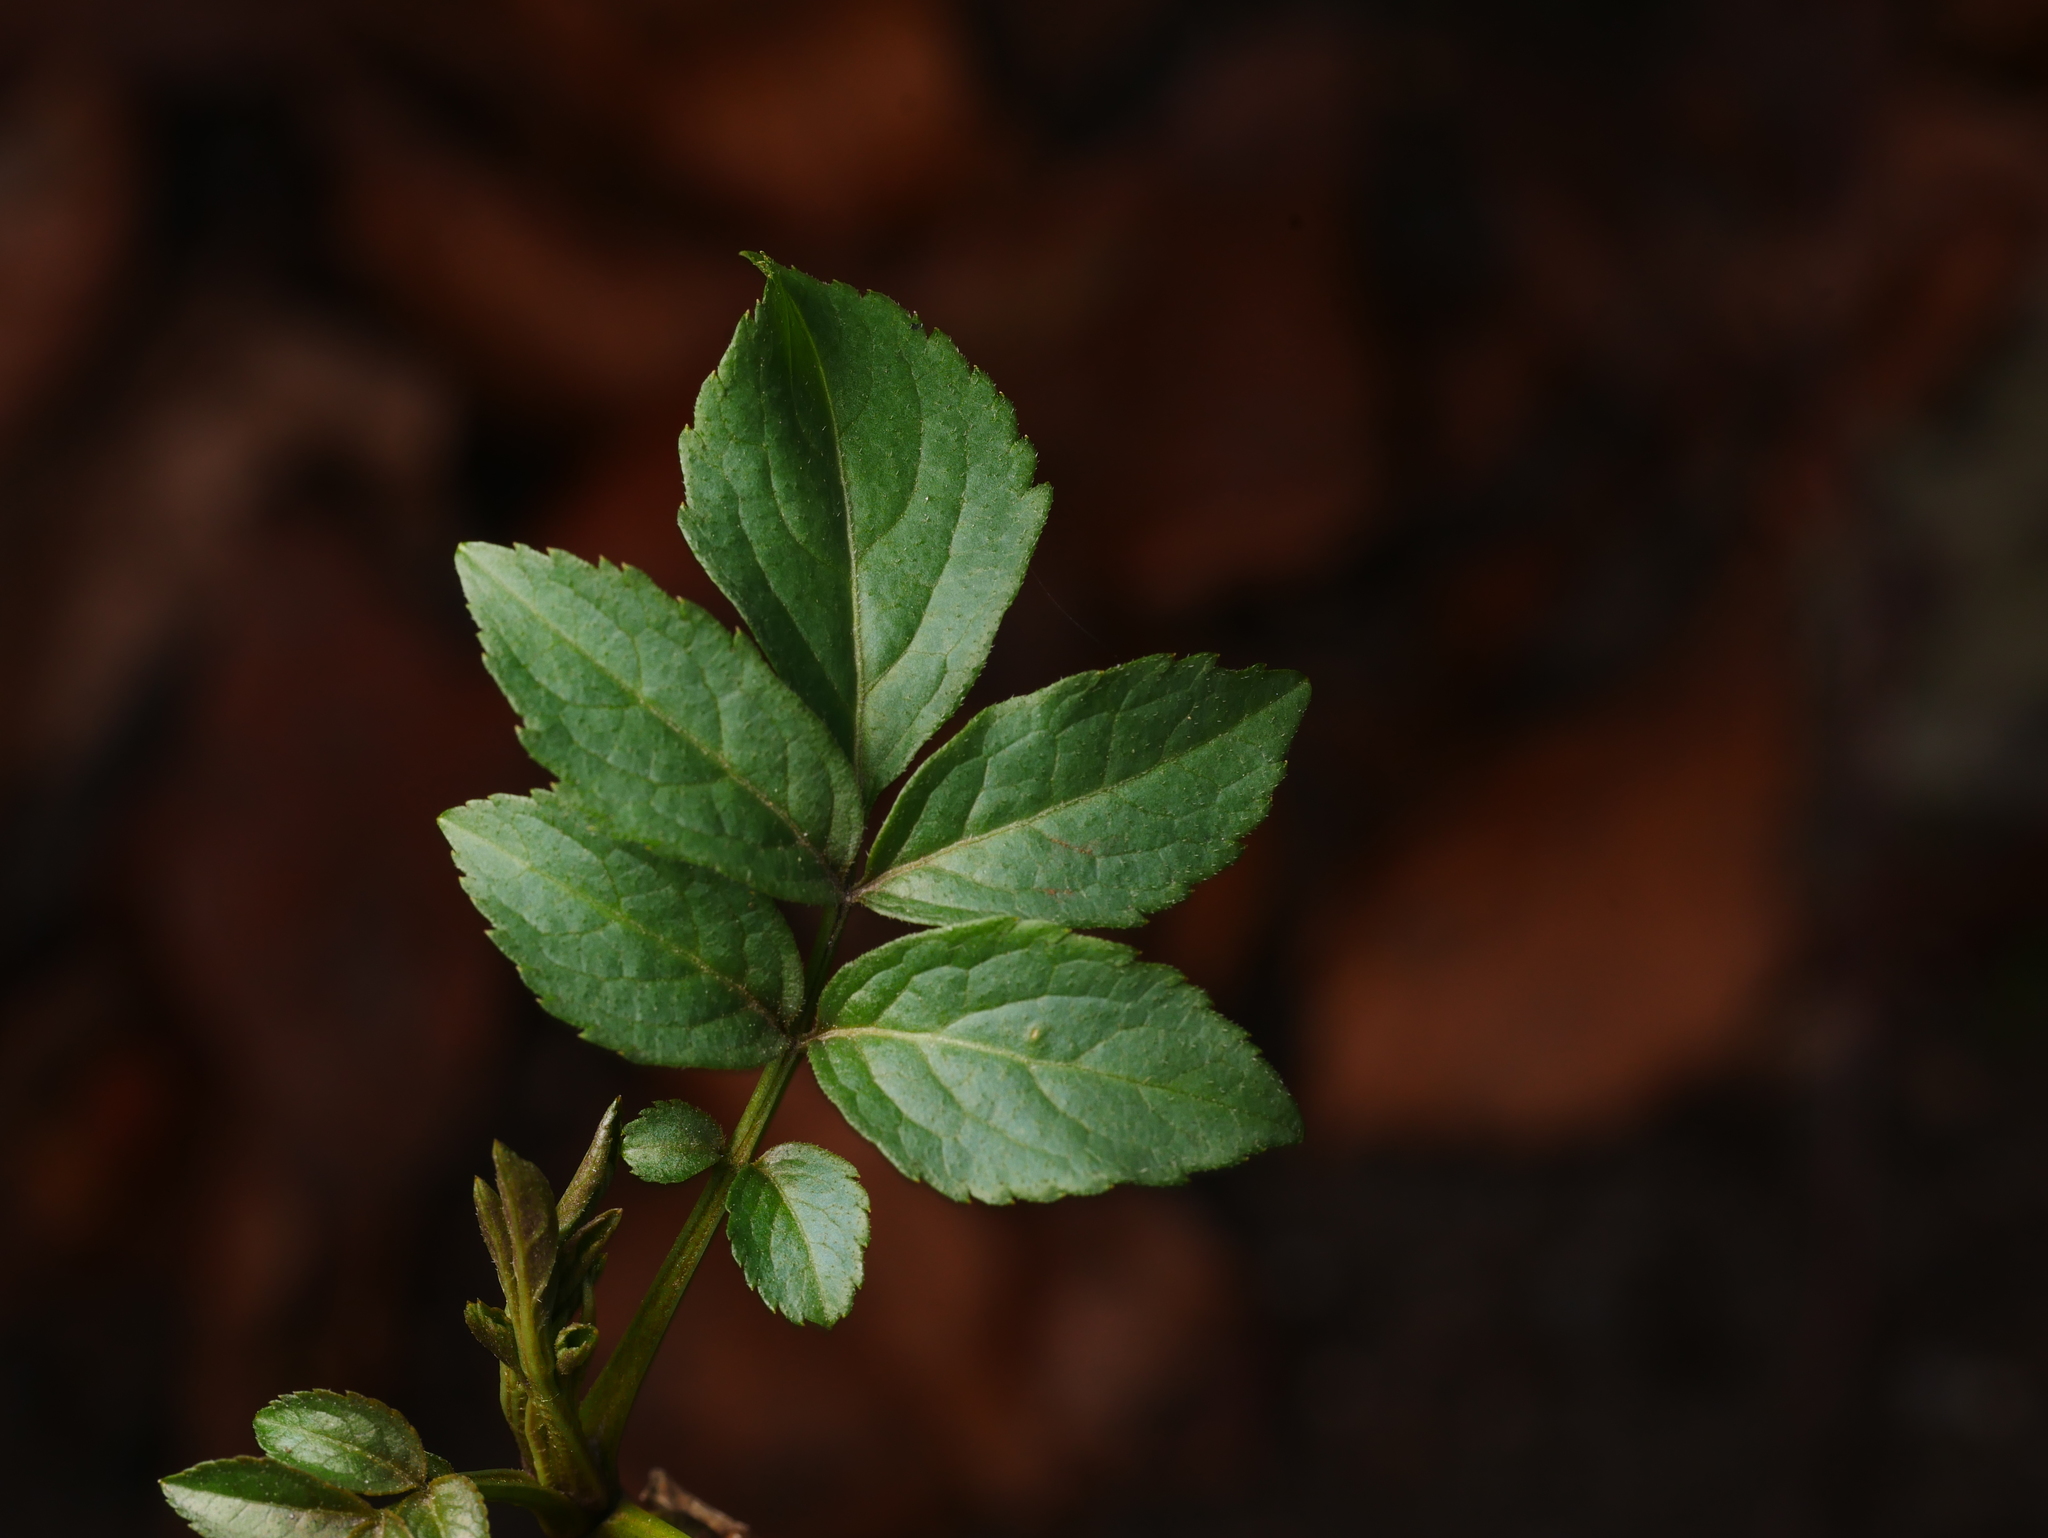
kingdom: Plantae
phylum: Tracheophyta
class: Magnoliopsida
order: Dipsacales
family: Viburnaceae
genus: Sambucus
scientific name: Sambucus nigra
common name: Elder
